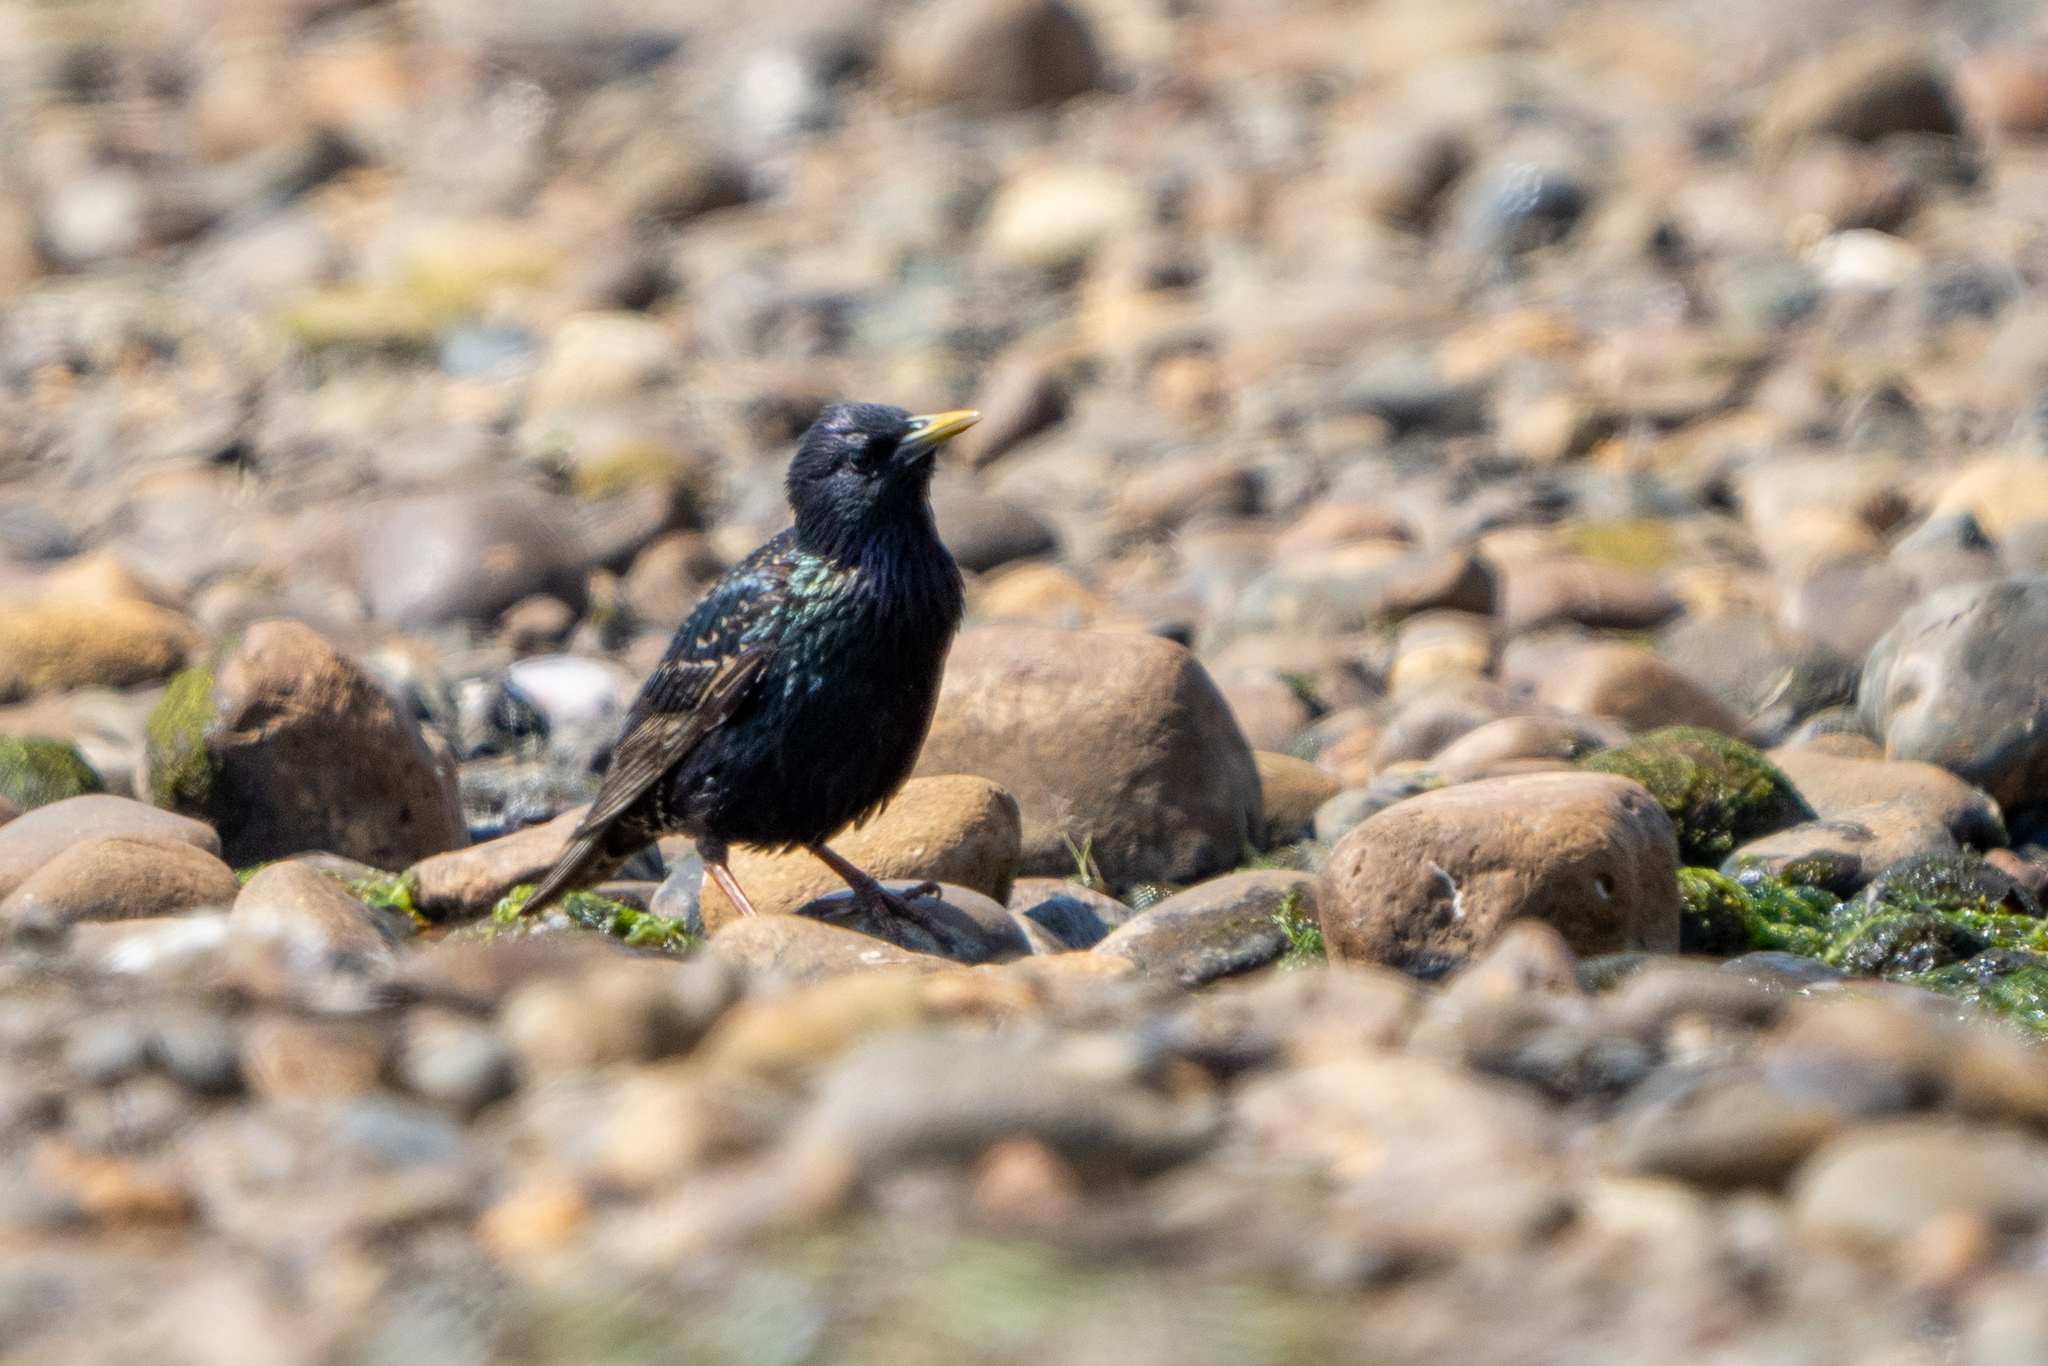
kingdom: Animalia
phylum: Chordata
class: Aves
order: Passeriformes
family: Sturnidae
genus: Sturnus
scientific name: Sturnus vulgaris
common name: Common starling
